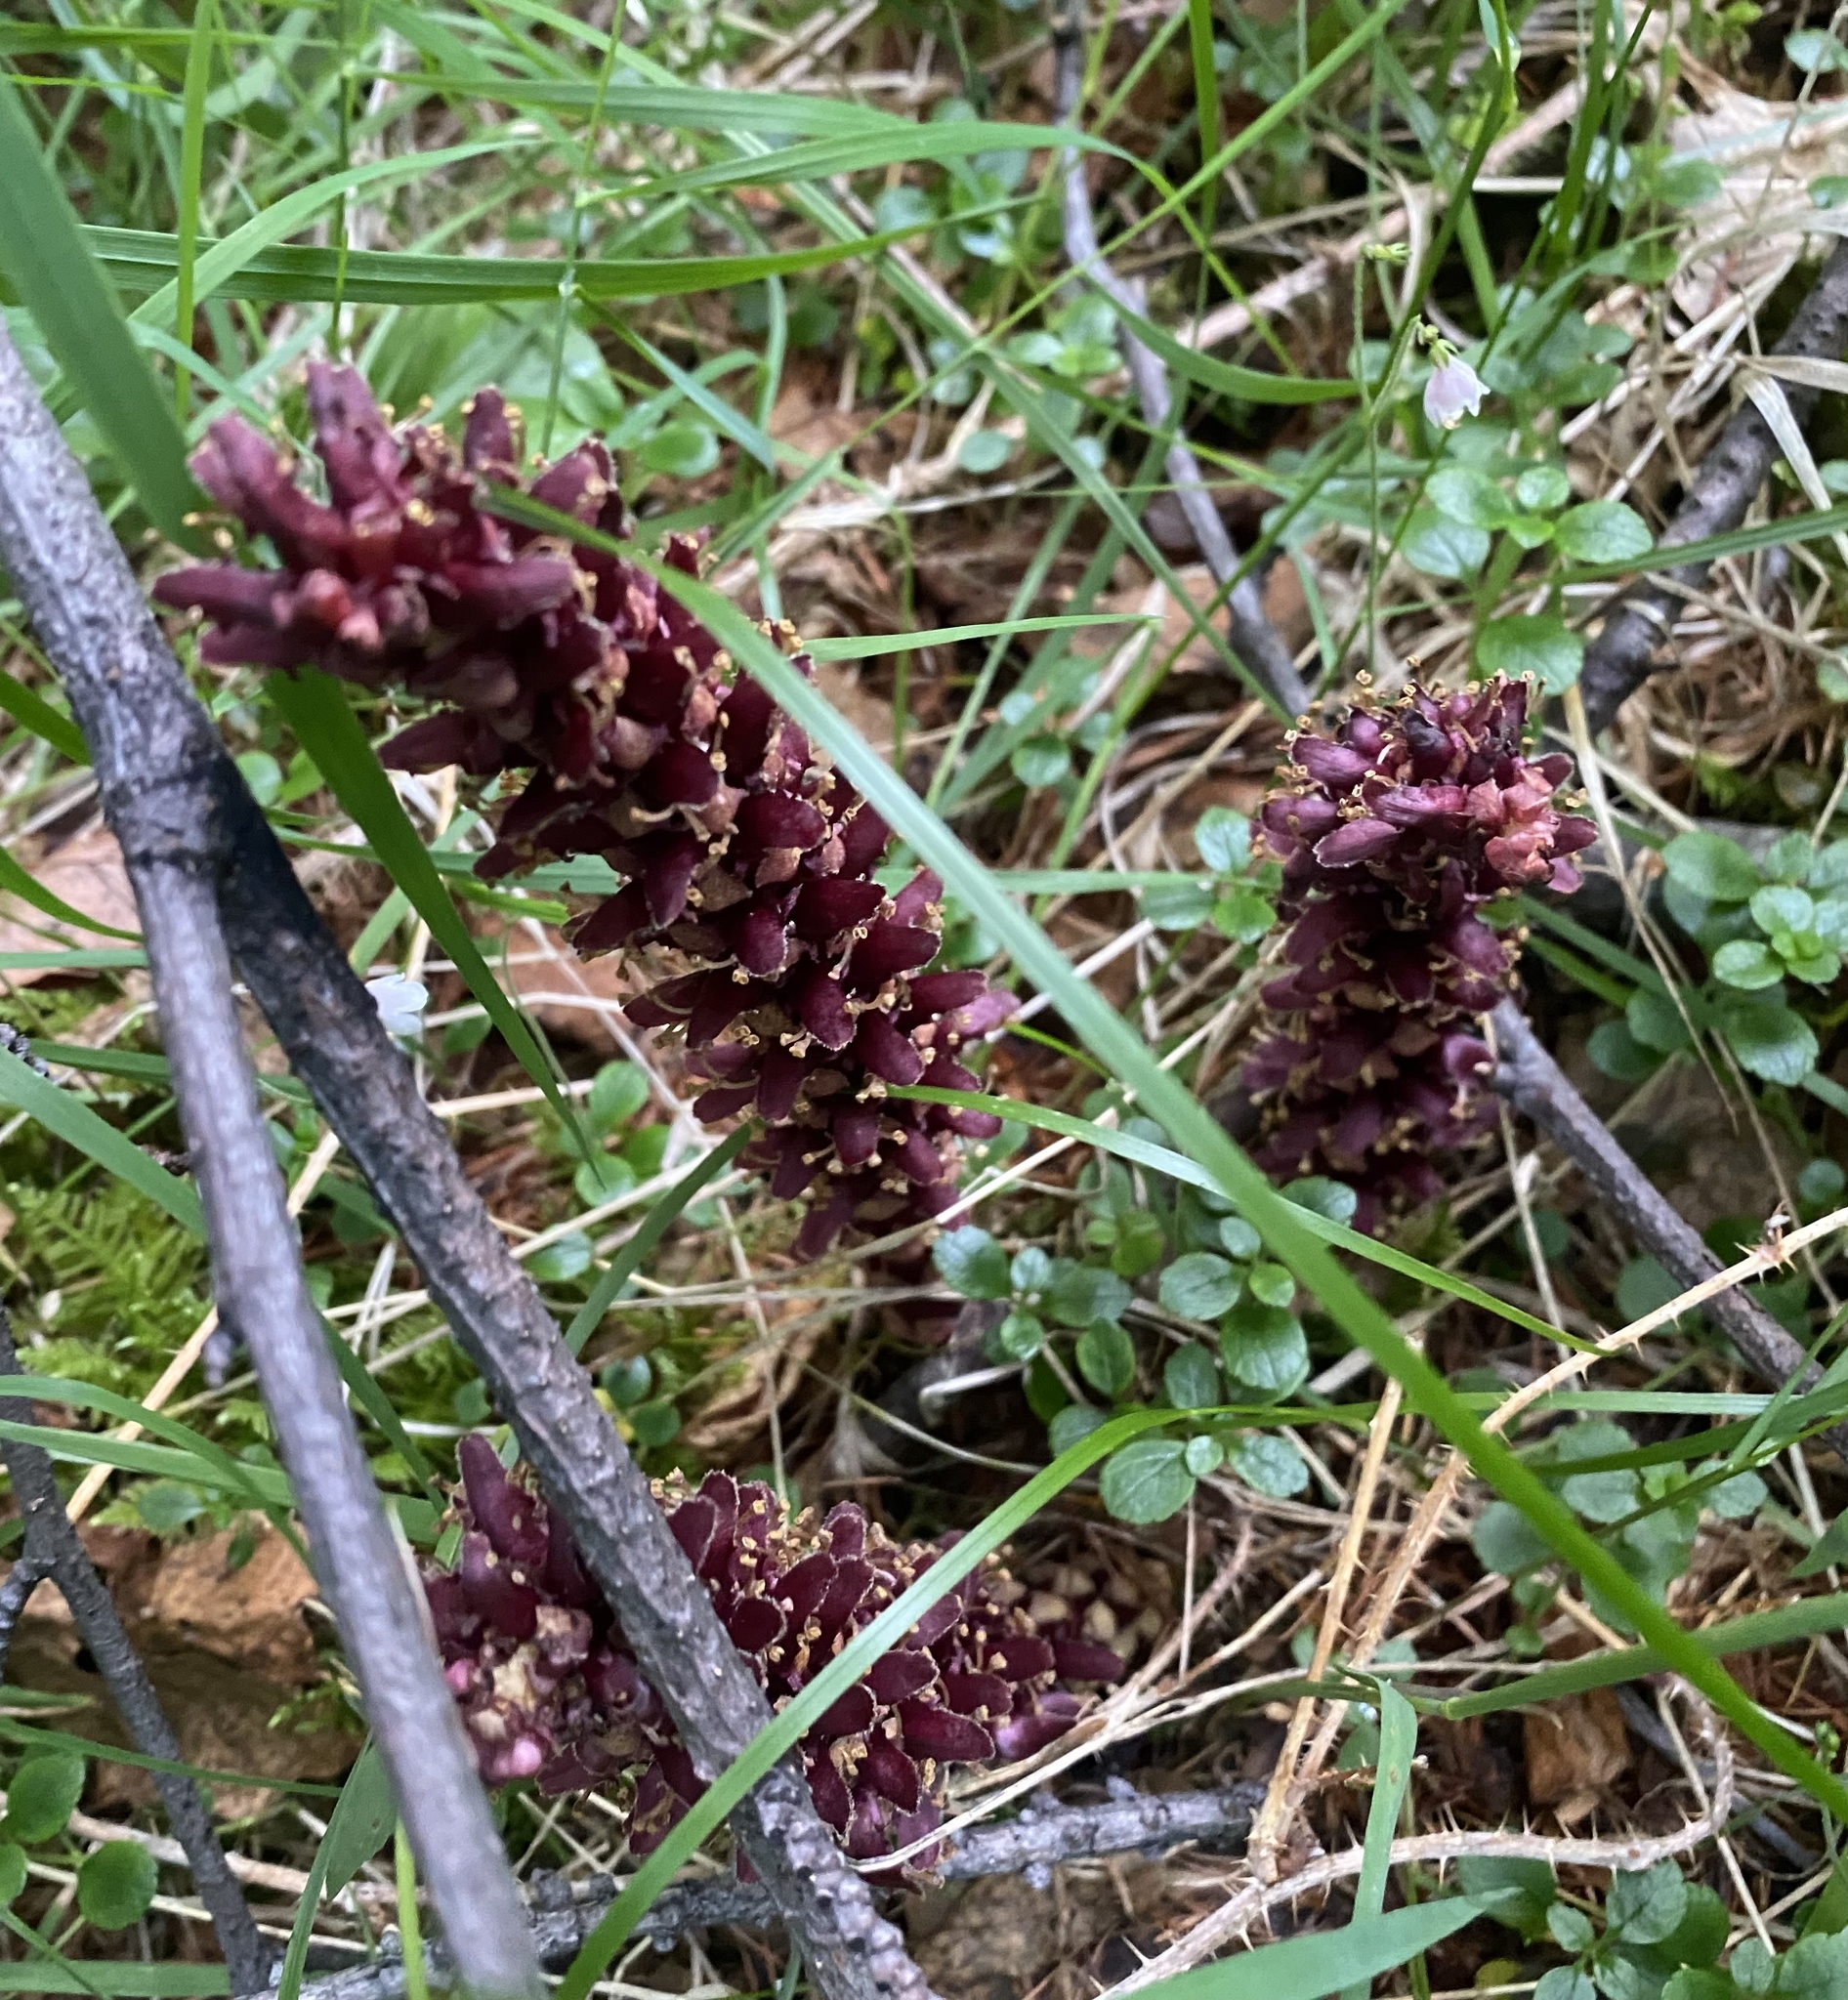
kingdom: Plantae
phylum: Tracheophyta
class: Magnoliopsida
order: Lamiales
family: Orobanchaceae
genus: Boschniakia
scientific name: Boschniakia rossica
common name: Poque
